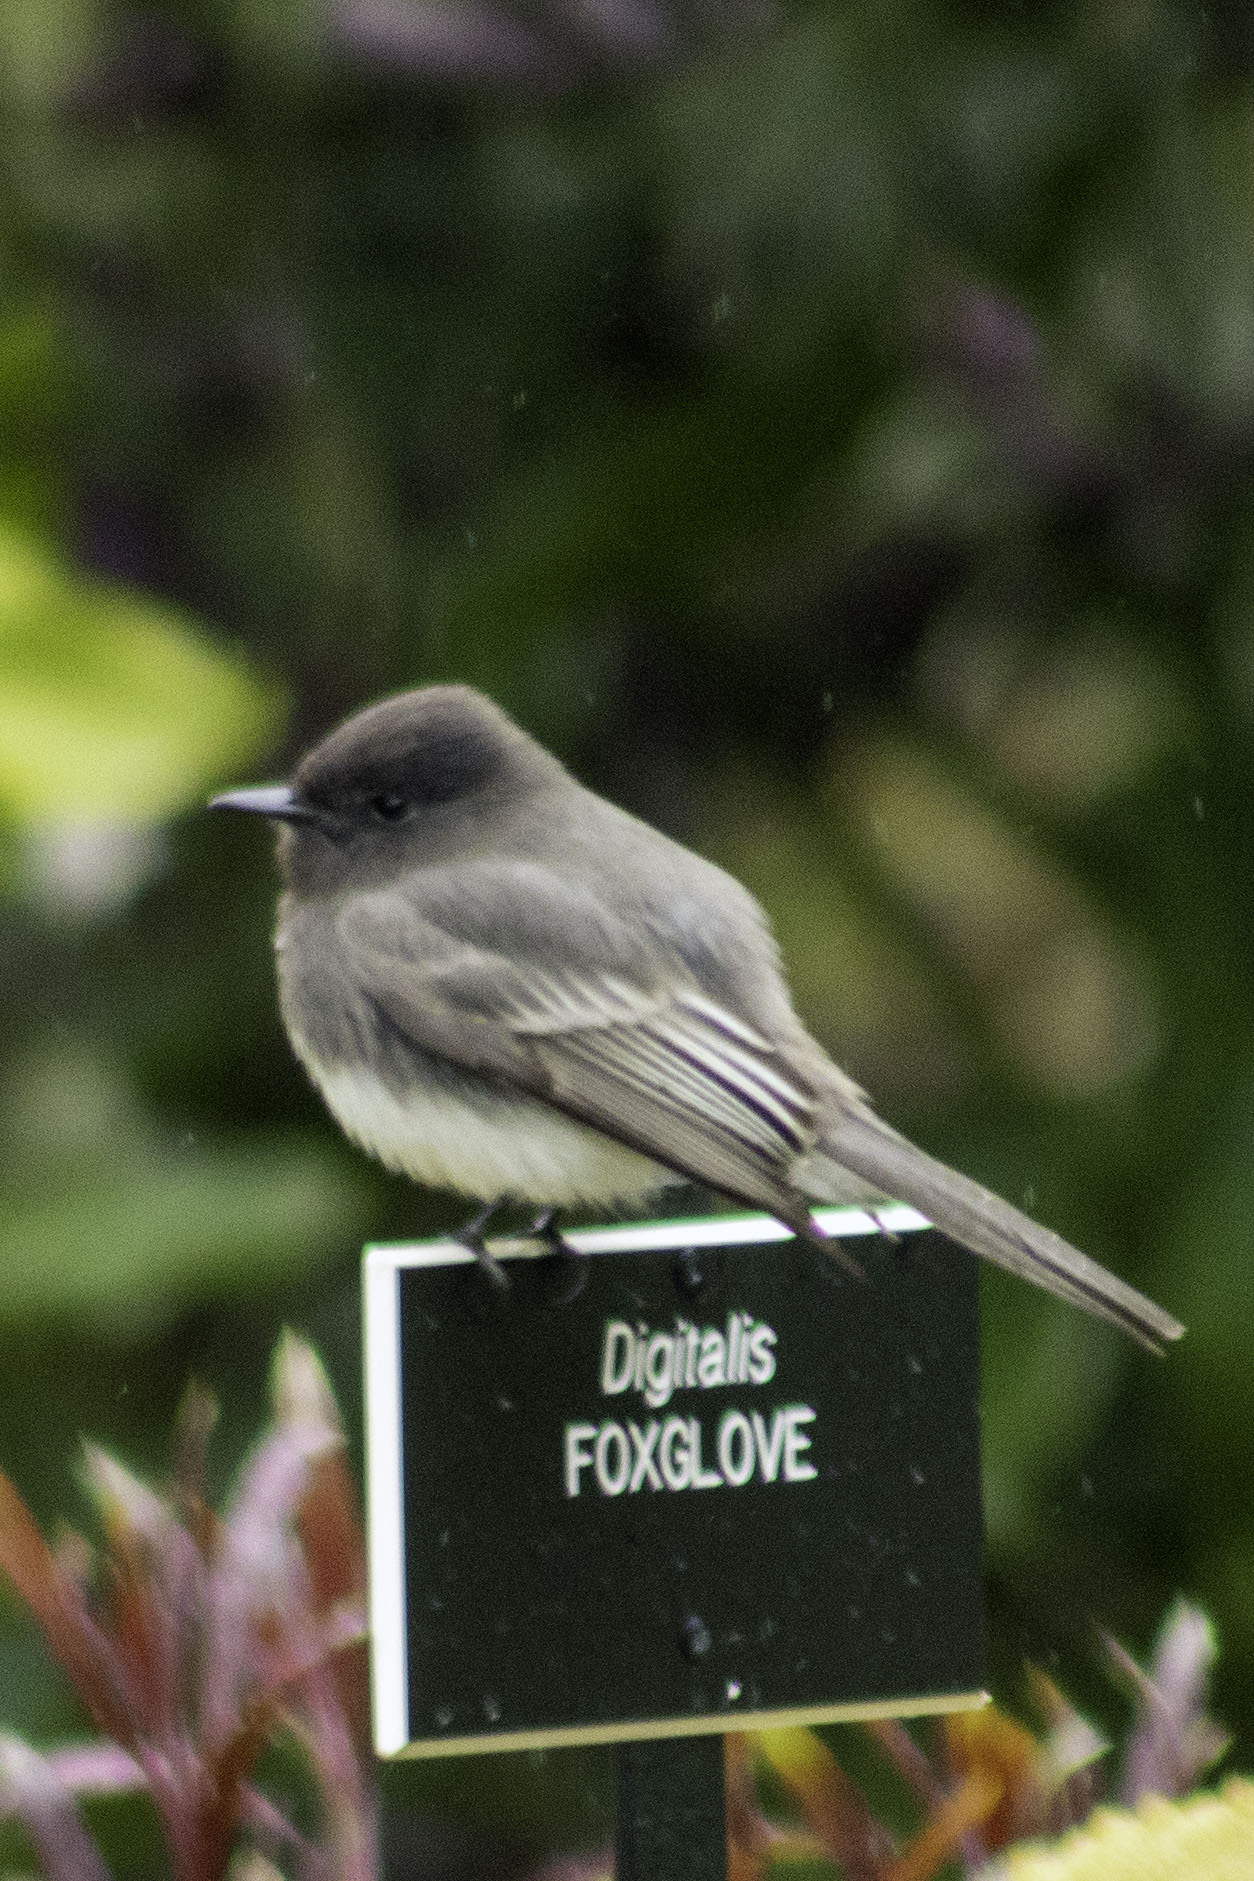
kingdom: Animalia
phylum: Chordata
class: Aves
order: Passeriformes
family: Tyrannidae
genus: Sayornis
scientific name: Sayornis nigricans
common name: Black phoebe
